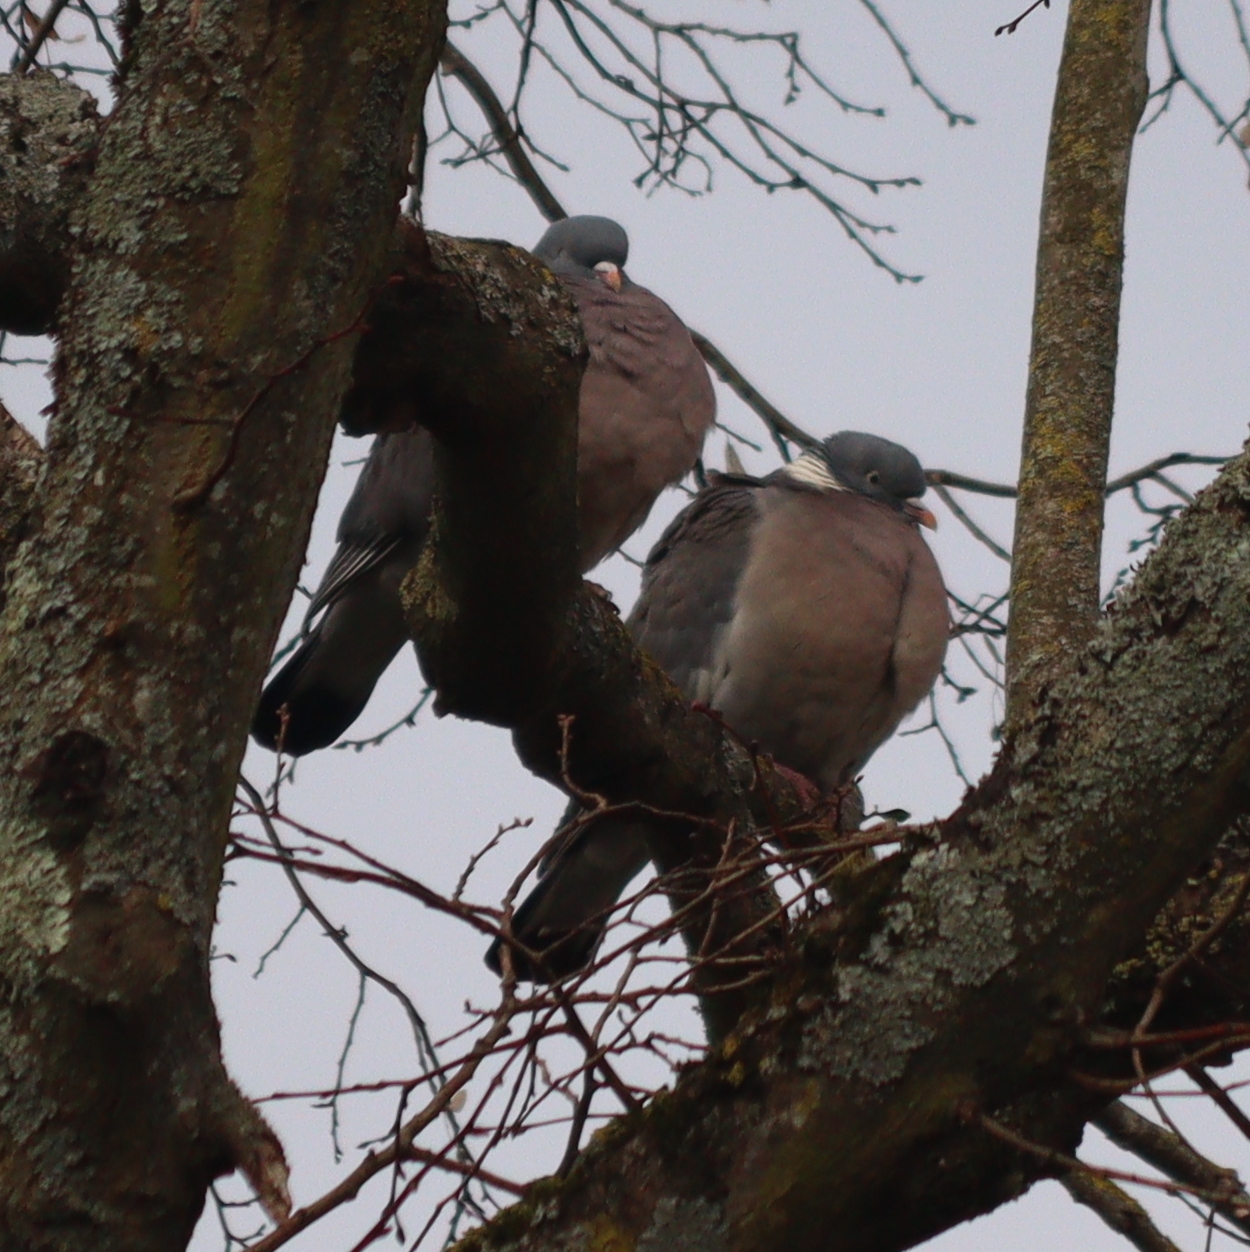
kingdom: Animalia
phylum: Chordata
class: Aves
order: Columbiformes
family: Columbidae
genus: Columba
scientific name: Columba palumbus
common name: Common wood pigeon
